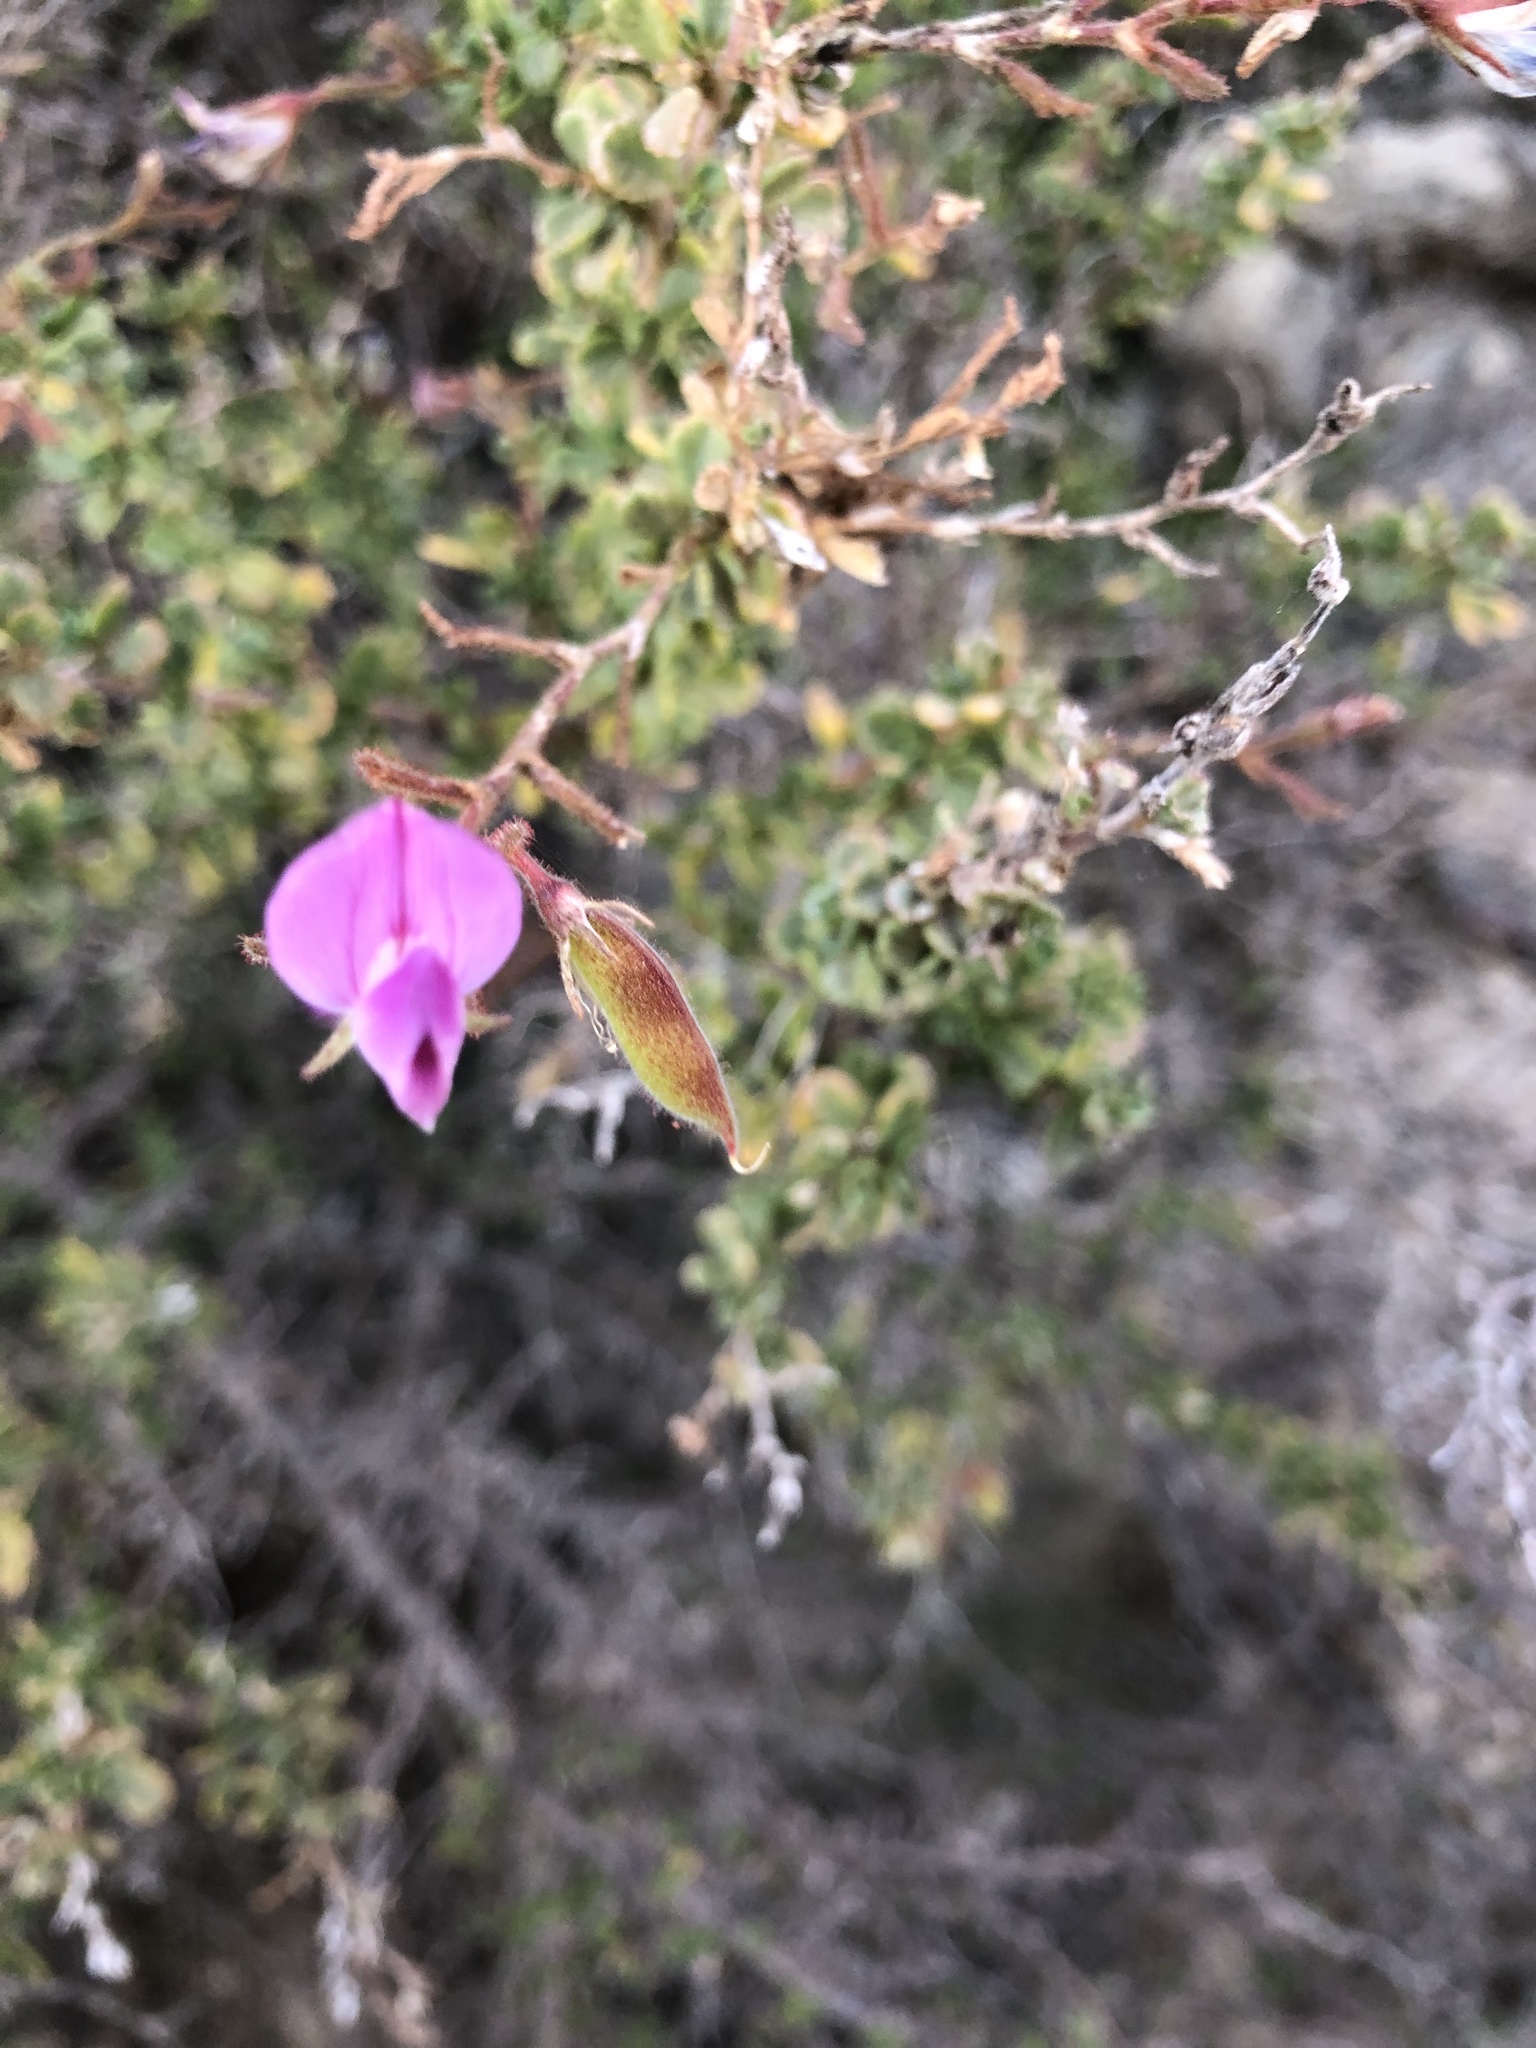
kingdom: Plantae
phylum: Tracheophyta
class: Magnoliopsida
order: Fabales
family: Fabaceae
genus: Ononis
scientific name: Ononis tridentata
